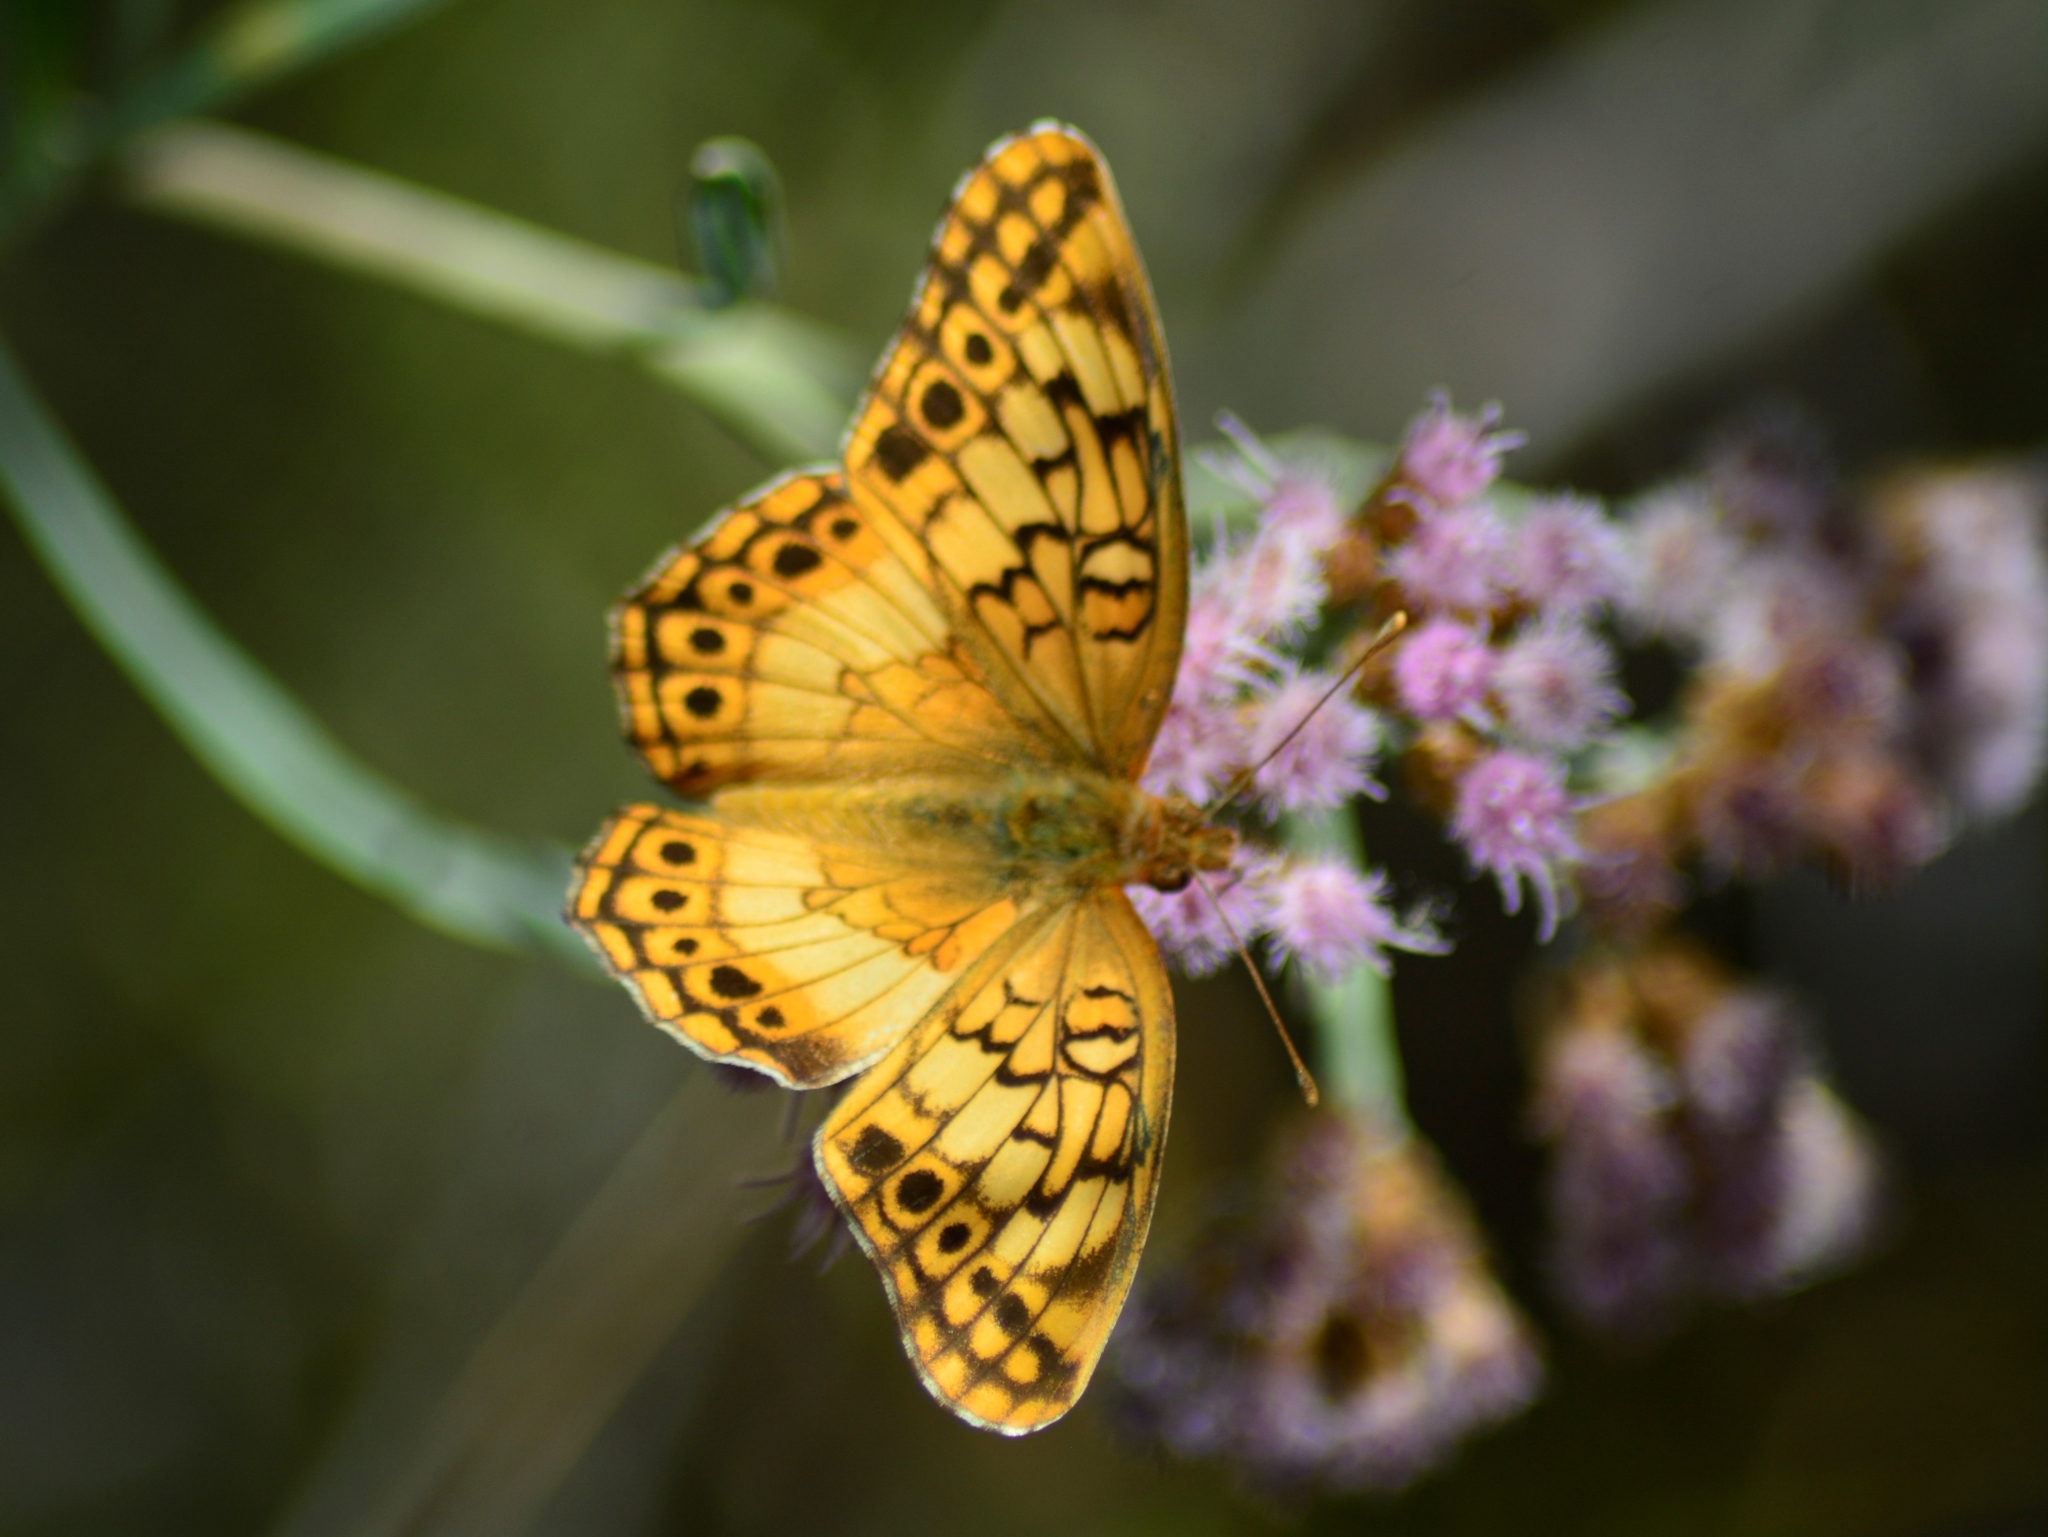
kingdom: Animalia
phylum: Arthropoda
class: Insecta
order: Lepidoptera
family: Nymphalidae
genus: Euptoieta
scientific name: Euptoieta hortensia
